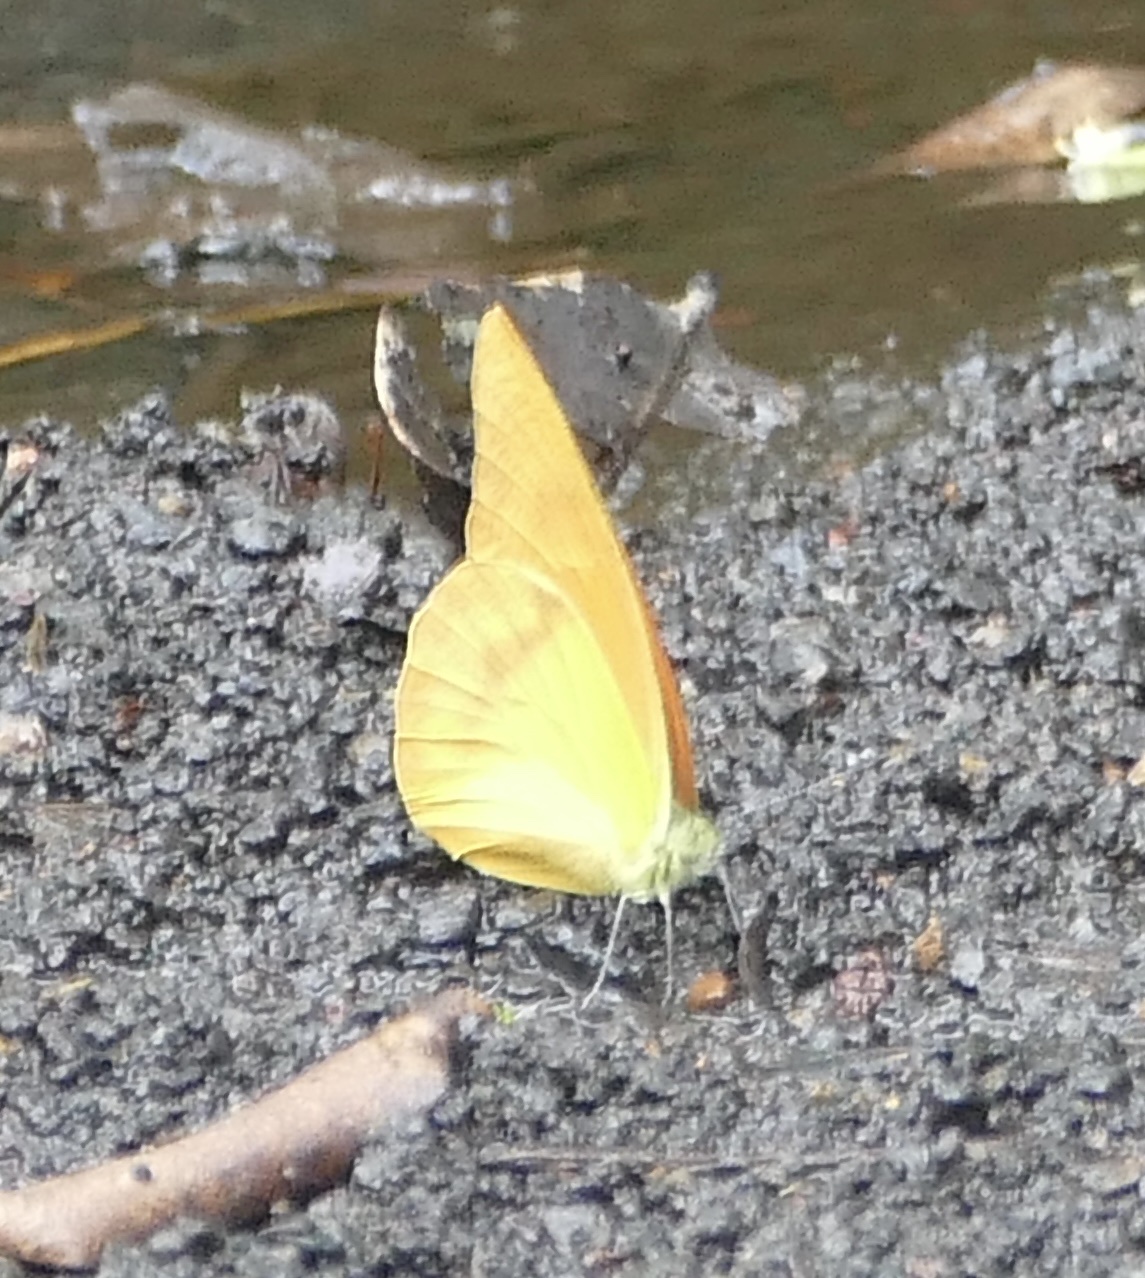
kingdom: Animalia
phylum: Arthropoda
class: Insecta
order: Lepidoptera
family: Pieridae
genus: Appias
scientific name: Appias zarinda
